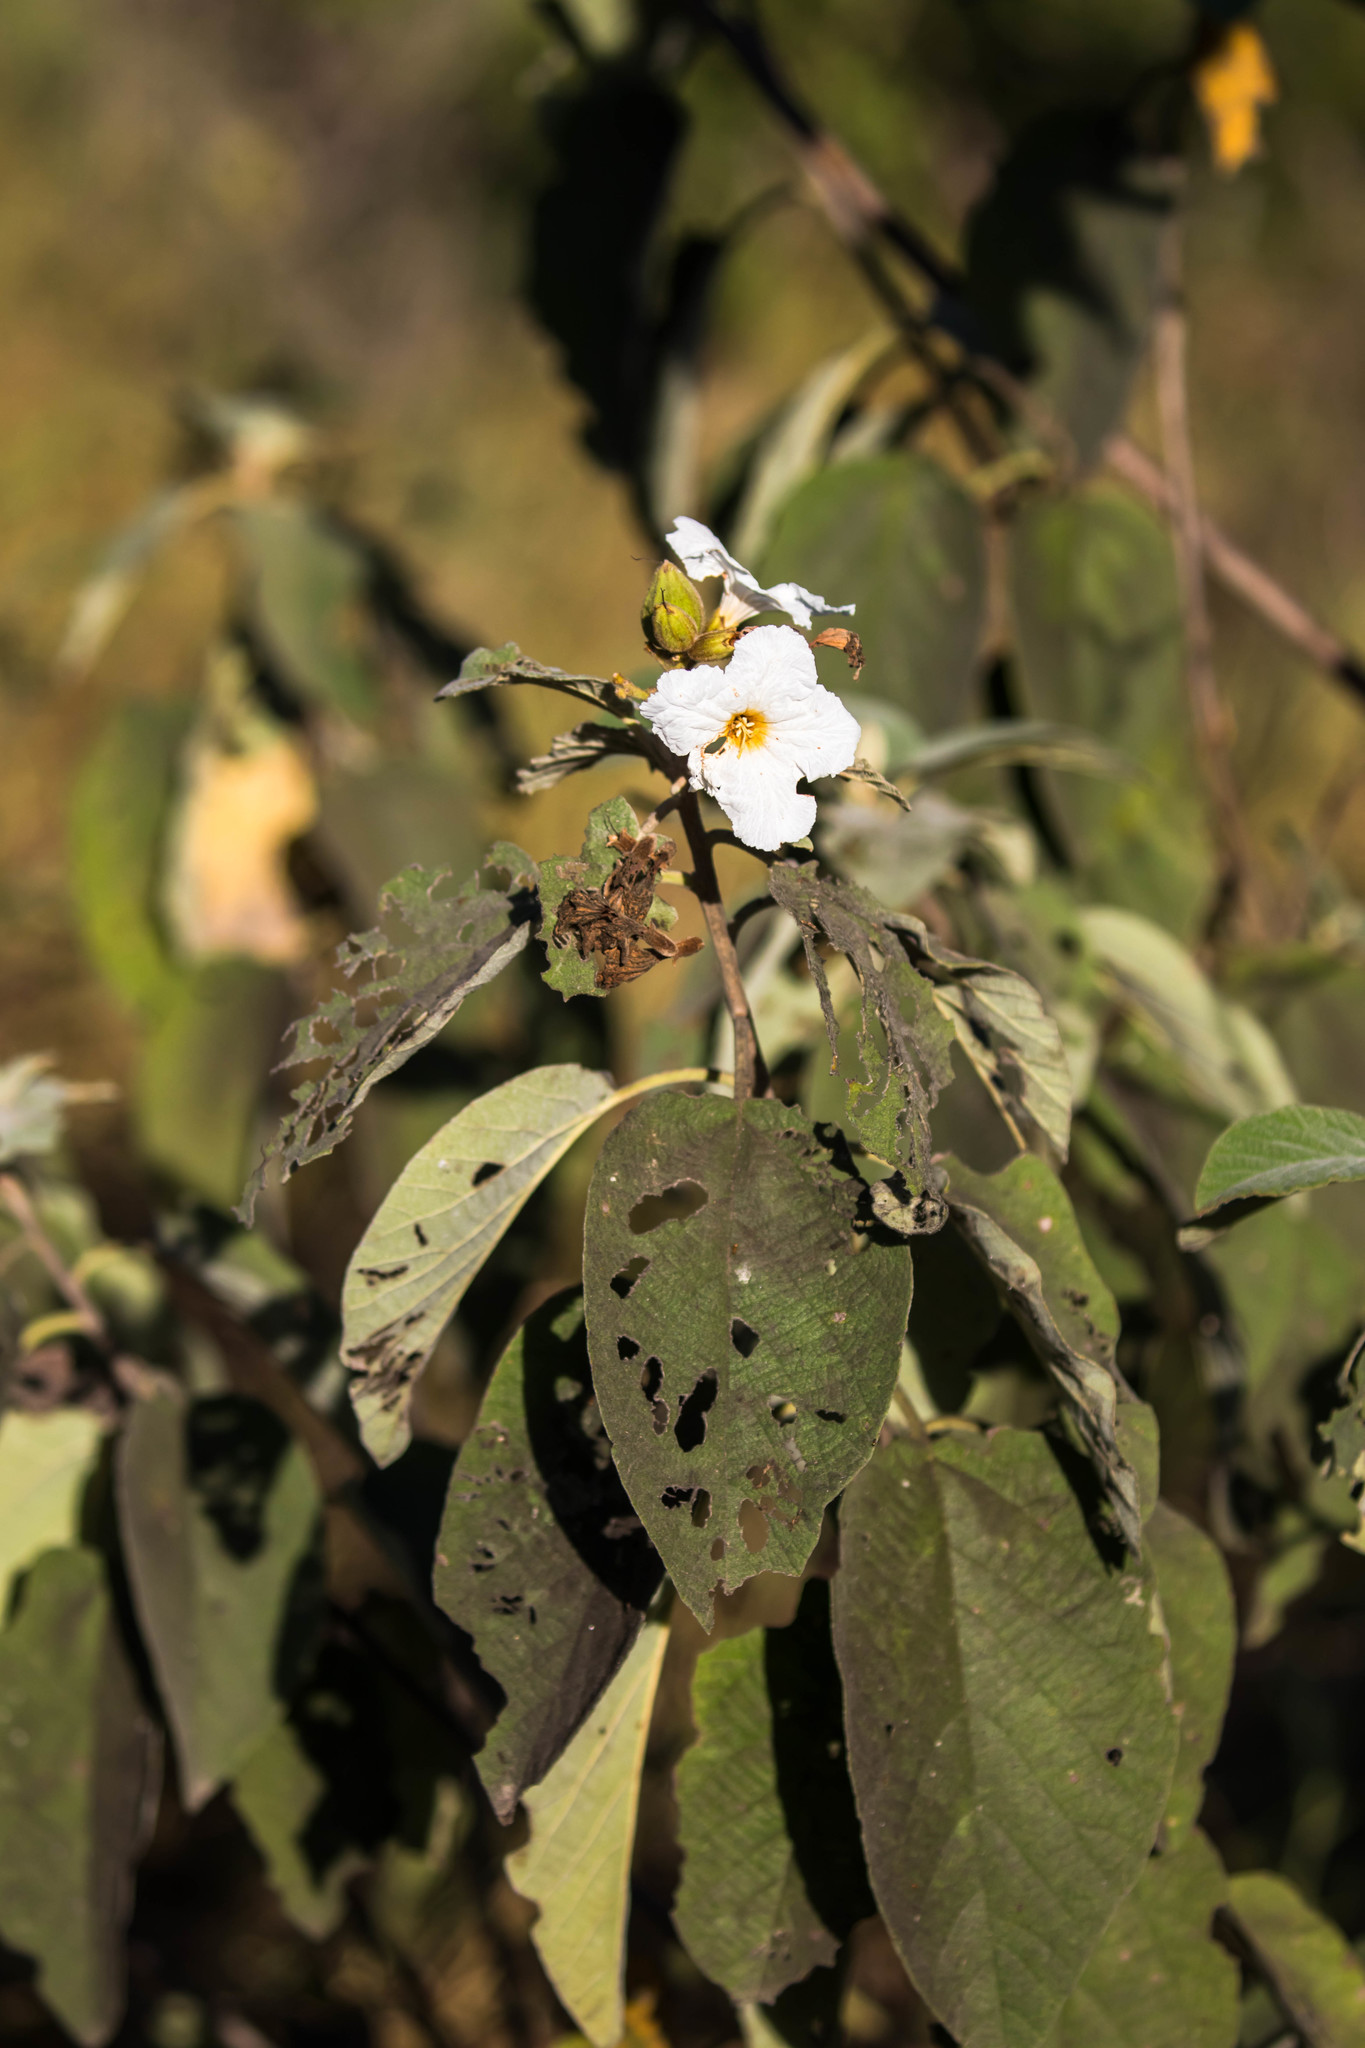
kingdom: Plantae
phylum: Tracheophyta
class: Magnoliopsida
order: Boraginales
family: Cordiaceae
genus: Cordia
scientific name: Cordia boissieri
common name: Mexican-olive
